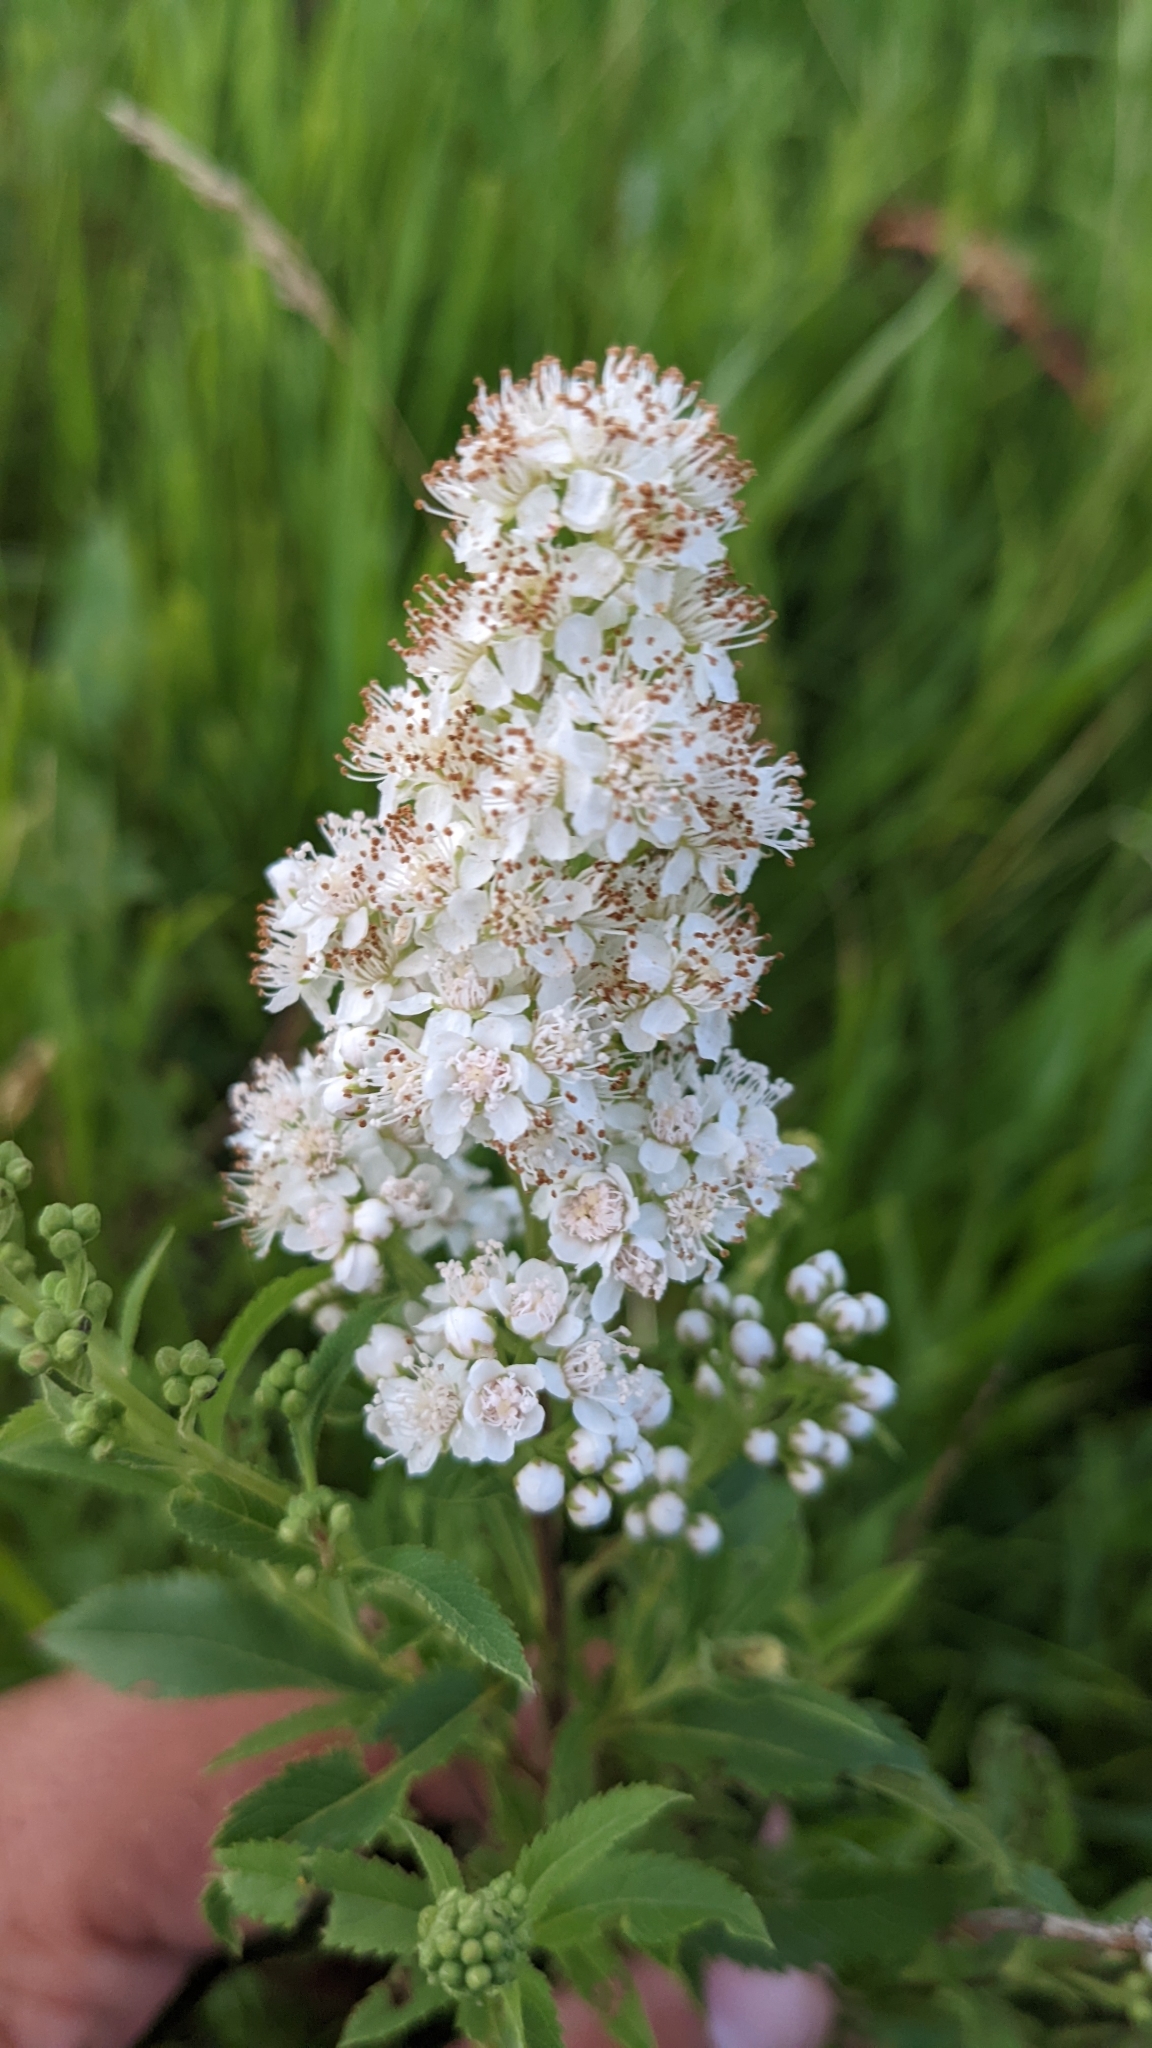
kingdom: Plantae
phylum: Tracheophyta
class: Magnoliopsida
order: Rosales
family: Rosaceae
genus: Spiraea
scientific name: Spiraea alba
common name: Pale bridewort
